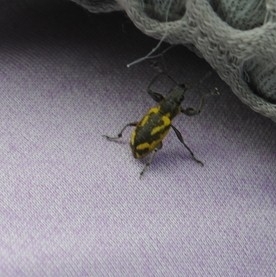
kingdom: Animalia
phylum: Arthropoda
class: Insecta
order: Coleoptera
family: Curculionidae
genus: Galapaganus
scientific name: Galapaganus howdenae
